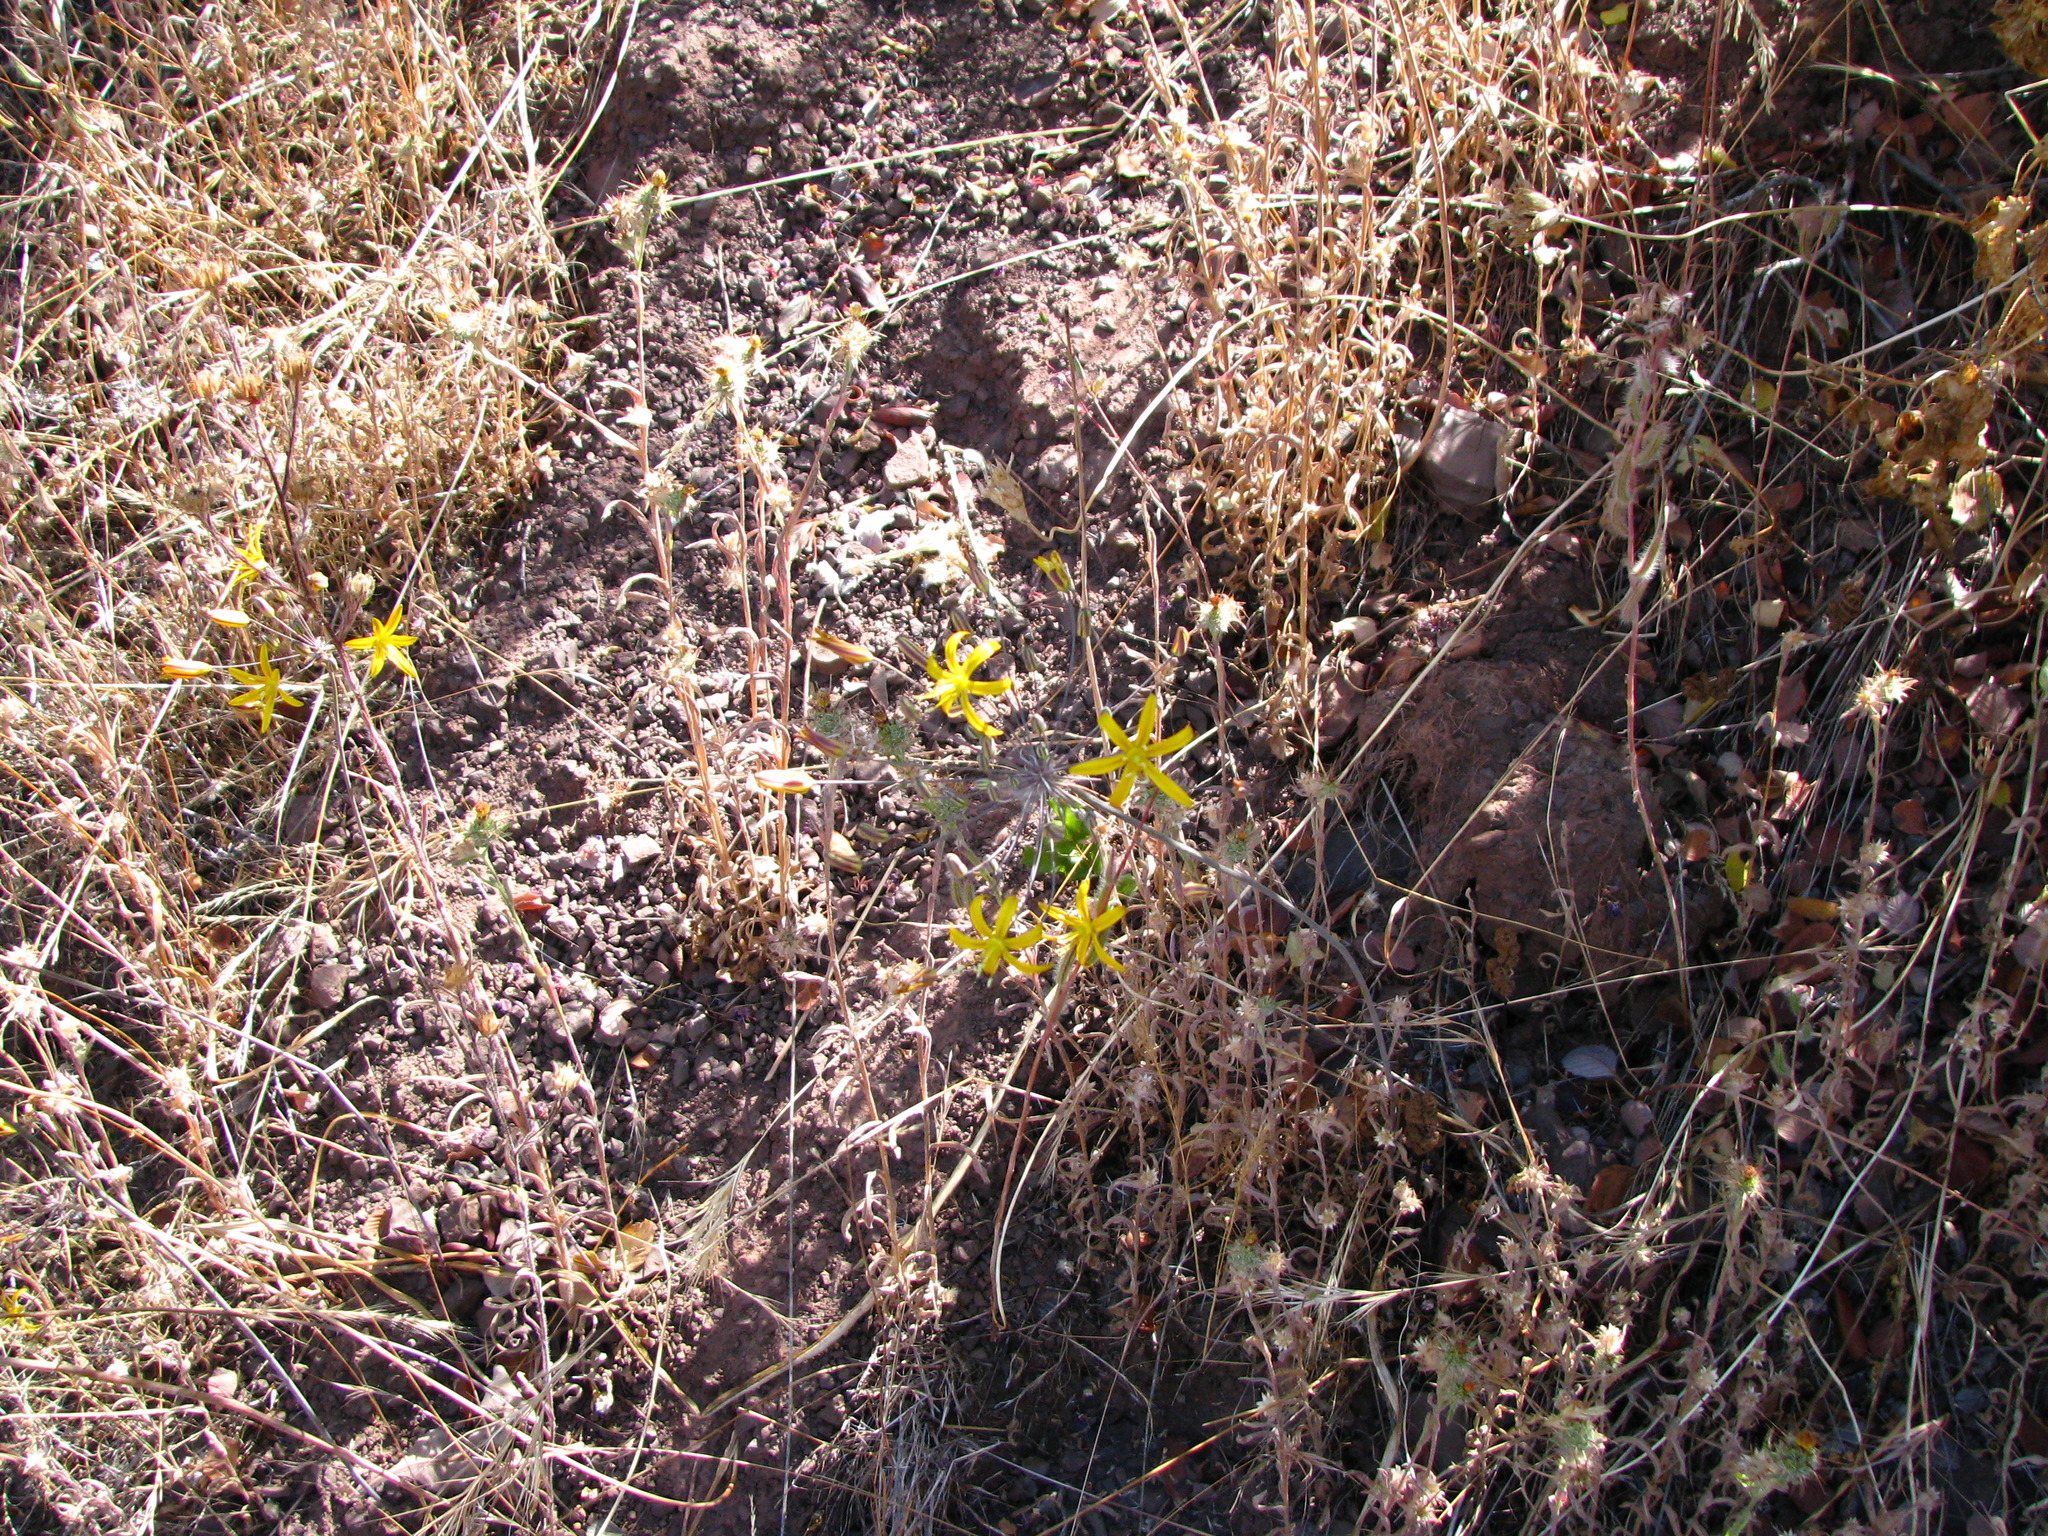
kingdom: Plantae
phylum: Tracheophyta
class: Liliopsida
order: Asparagales
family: Asparagaceae
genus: Bloomeria
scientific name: Bloomeria crocea
